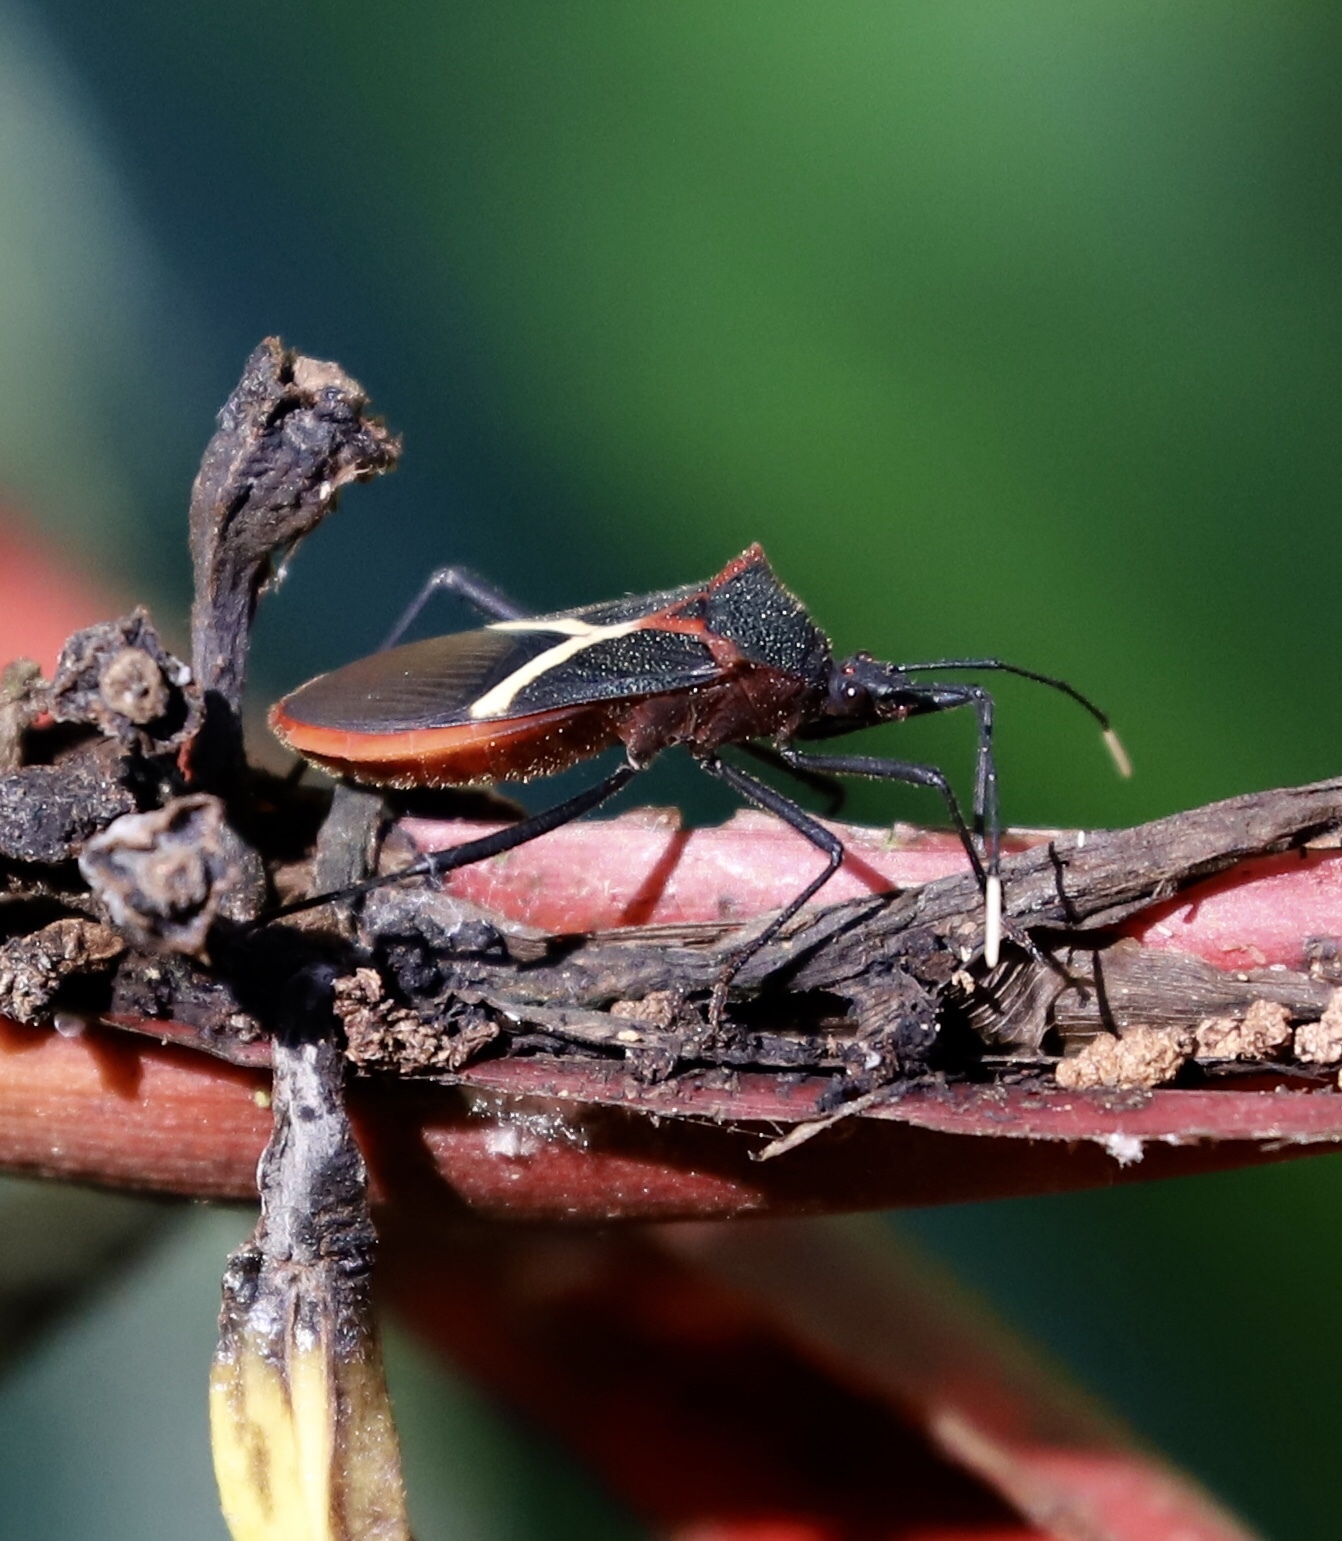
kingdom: Animalia
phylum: Arthropoda
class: Insecta
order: Hemiptera
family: Coreidae
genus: Leptoscelis
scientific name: Leptoscelis conspicuus
